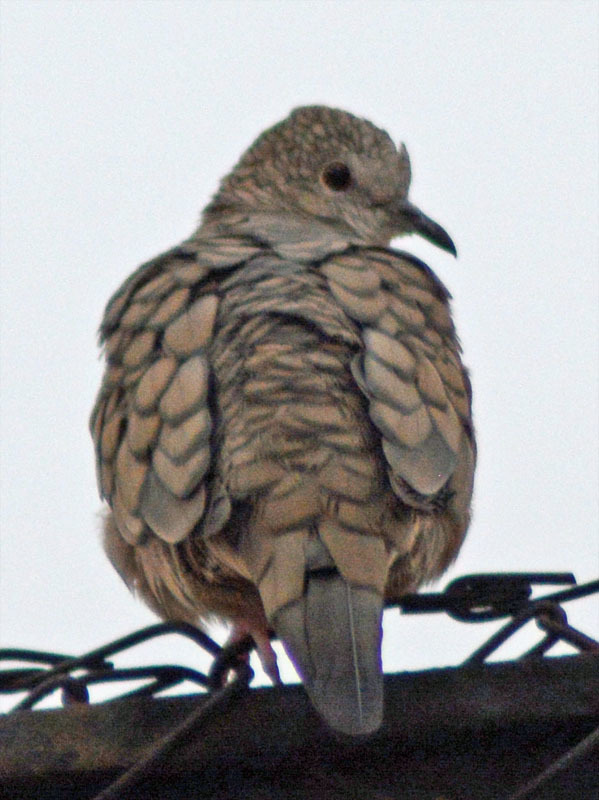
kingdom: Animalia
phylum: Chordata
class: Aves
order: Columbiformes
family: Columbidae
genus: Columbina
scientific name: Columbina inca
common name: Inca dove
